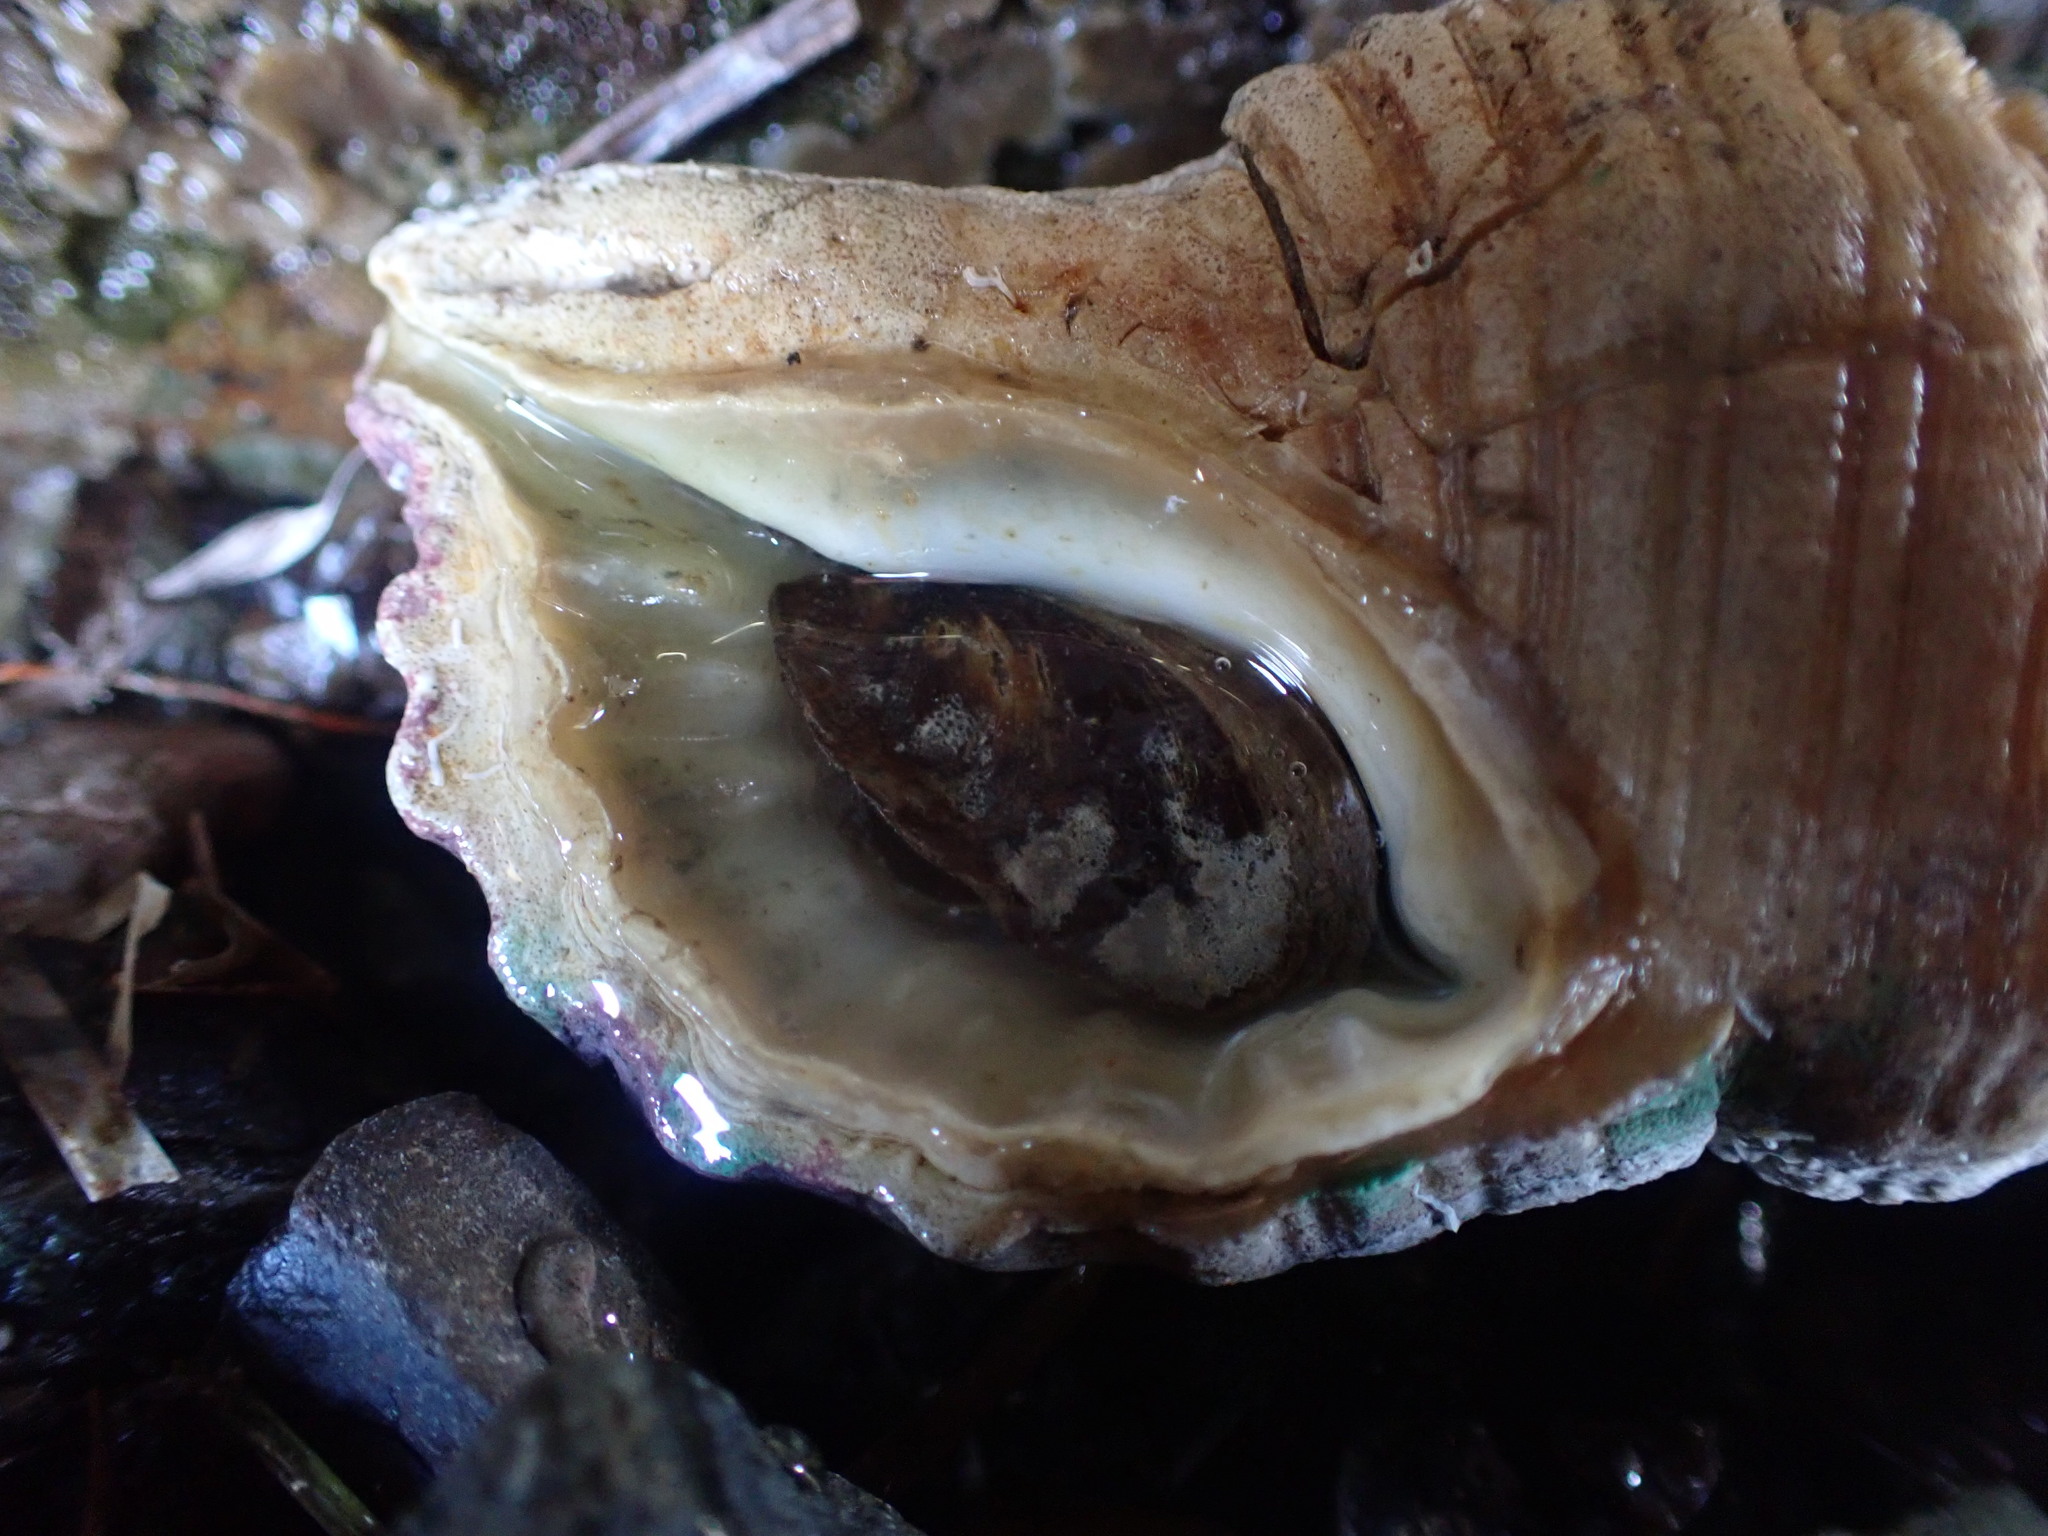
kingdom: Animalia
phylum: Mollusca
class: Gastropoda
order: Littorinimorpha
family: Cymatiidae
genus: Cabestana
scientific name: Cabestana spengleri
